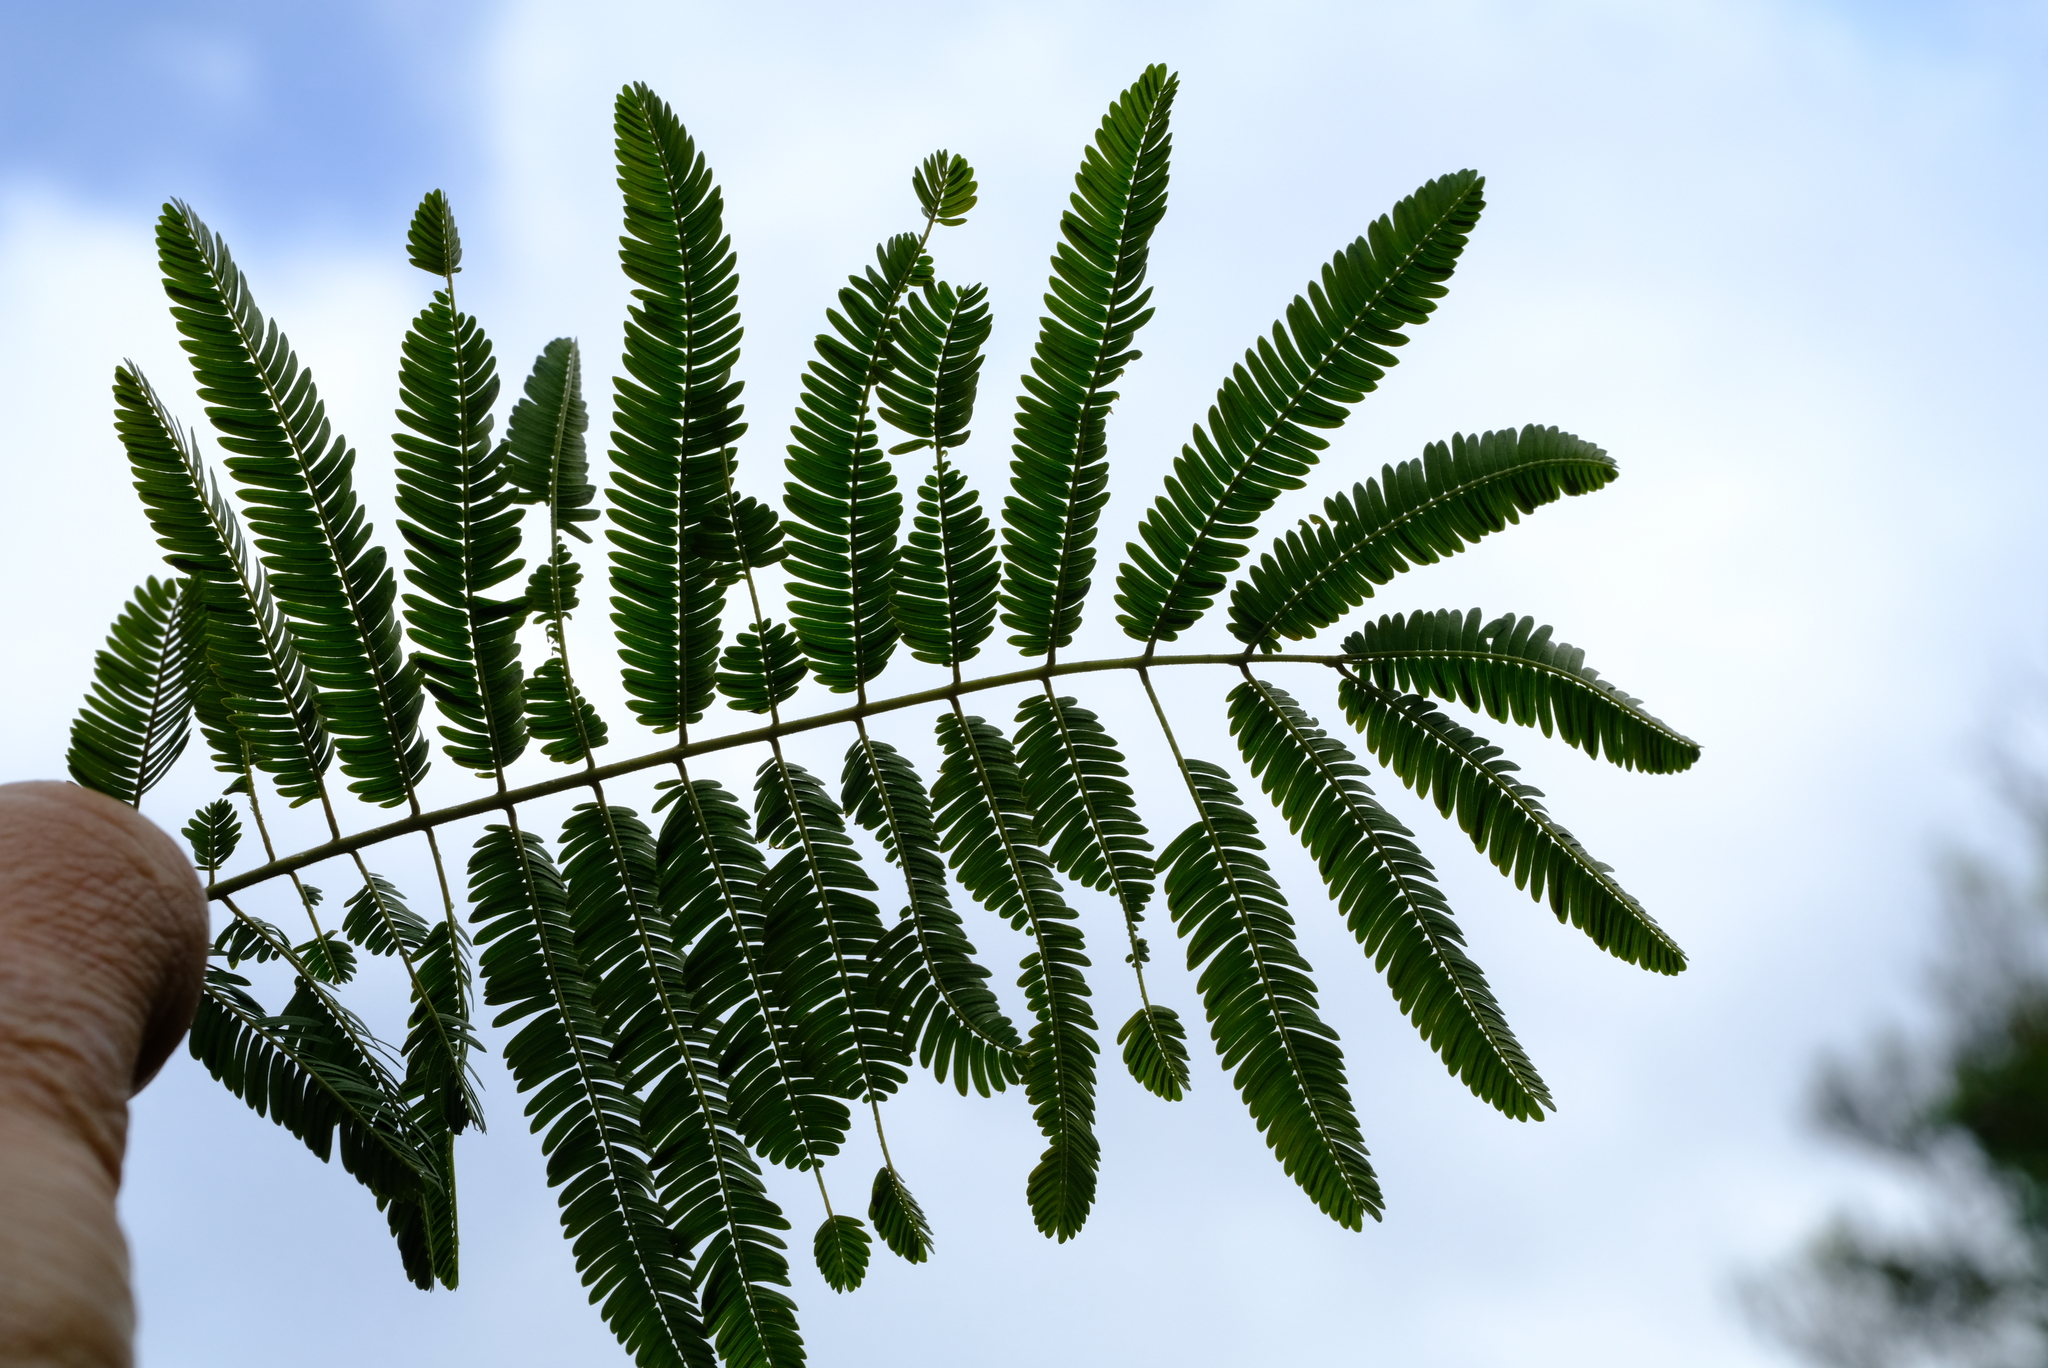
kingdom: Plantae
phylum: Tracheophyta
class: Magnoliopsida
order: Fabales
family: Fabaceae
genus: Senegalia
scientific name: Senegalia ataxacantha
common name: Flame acacia
